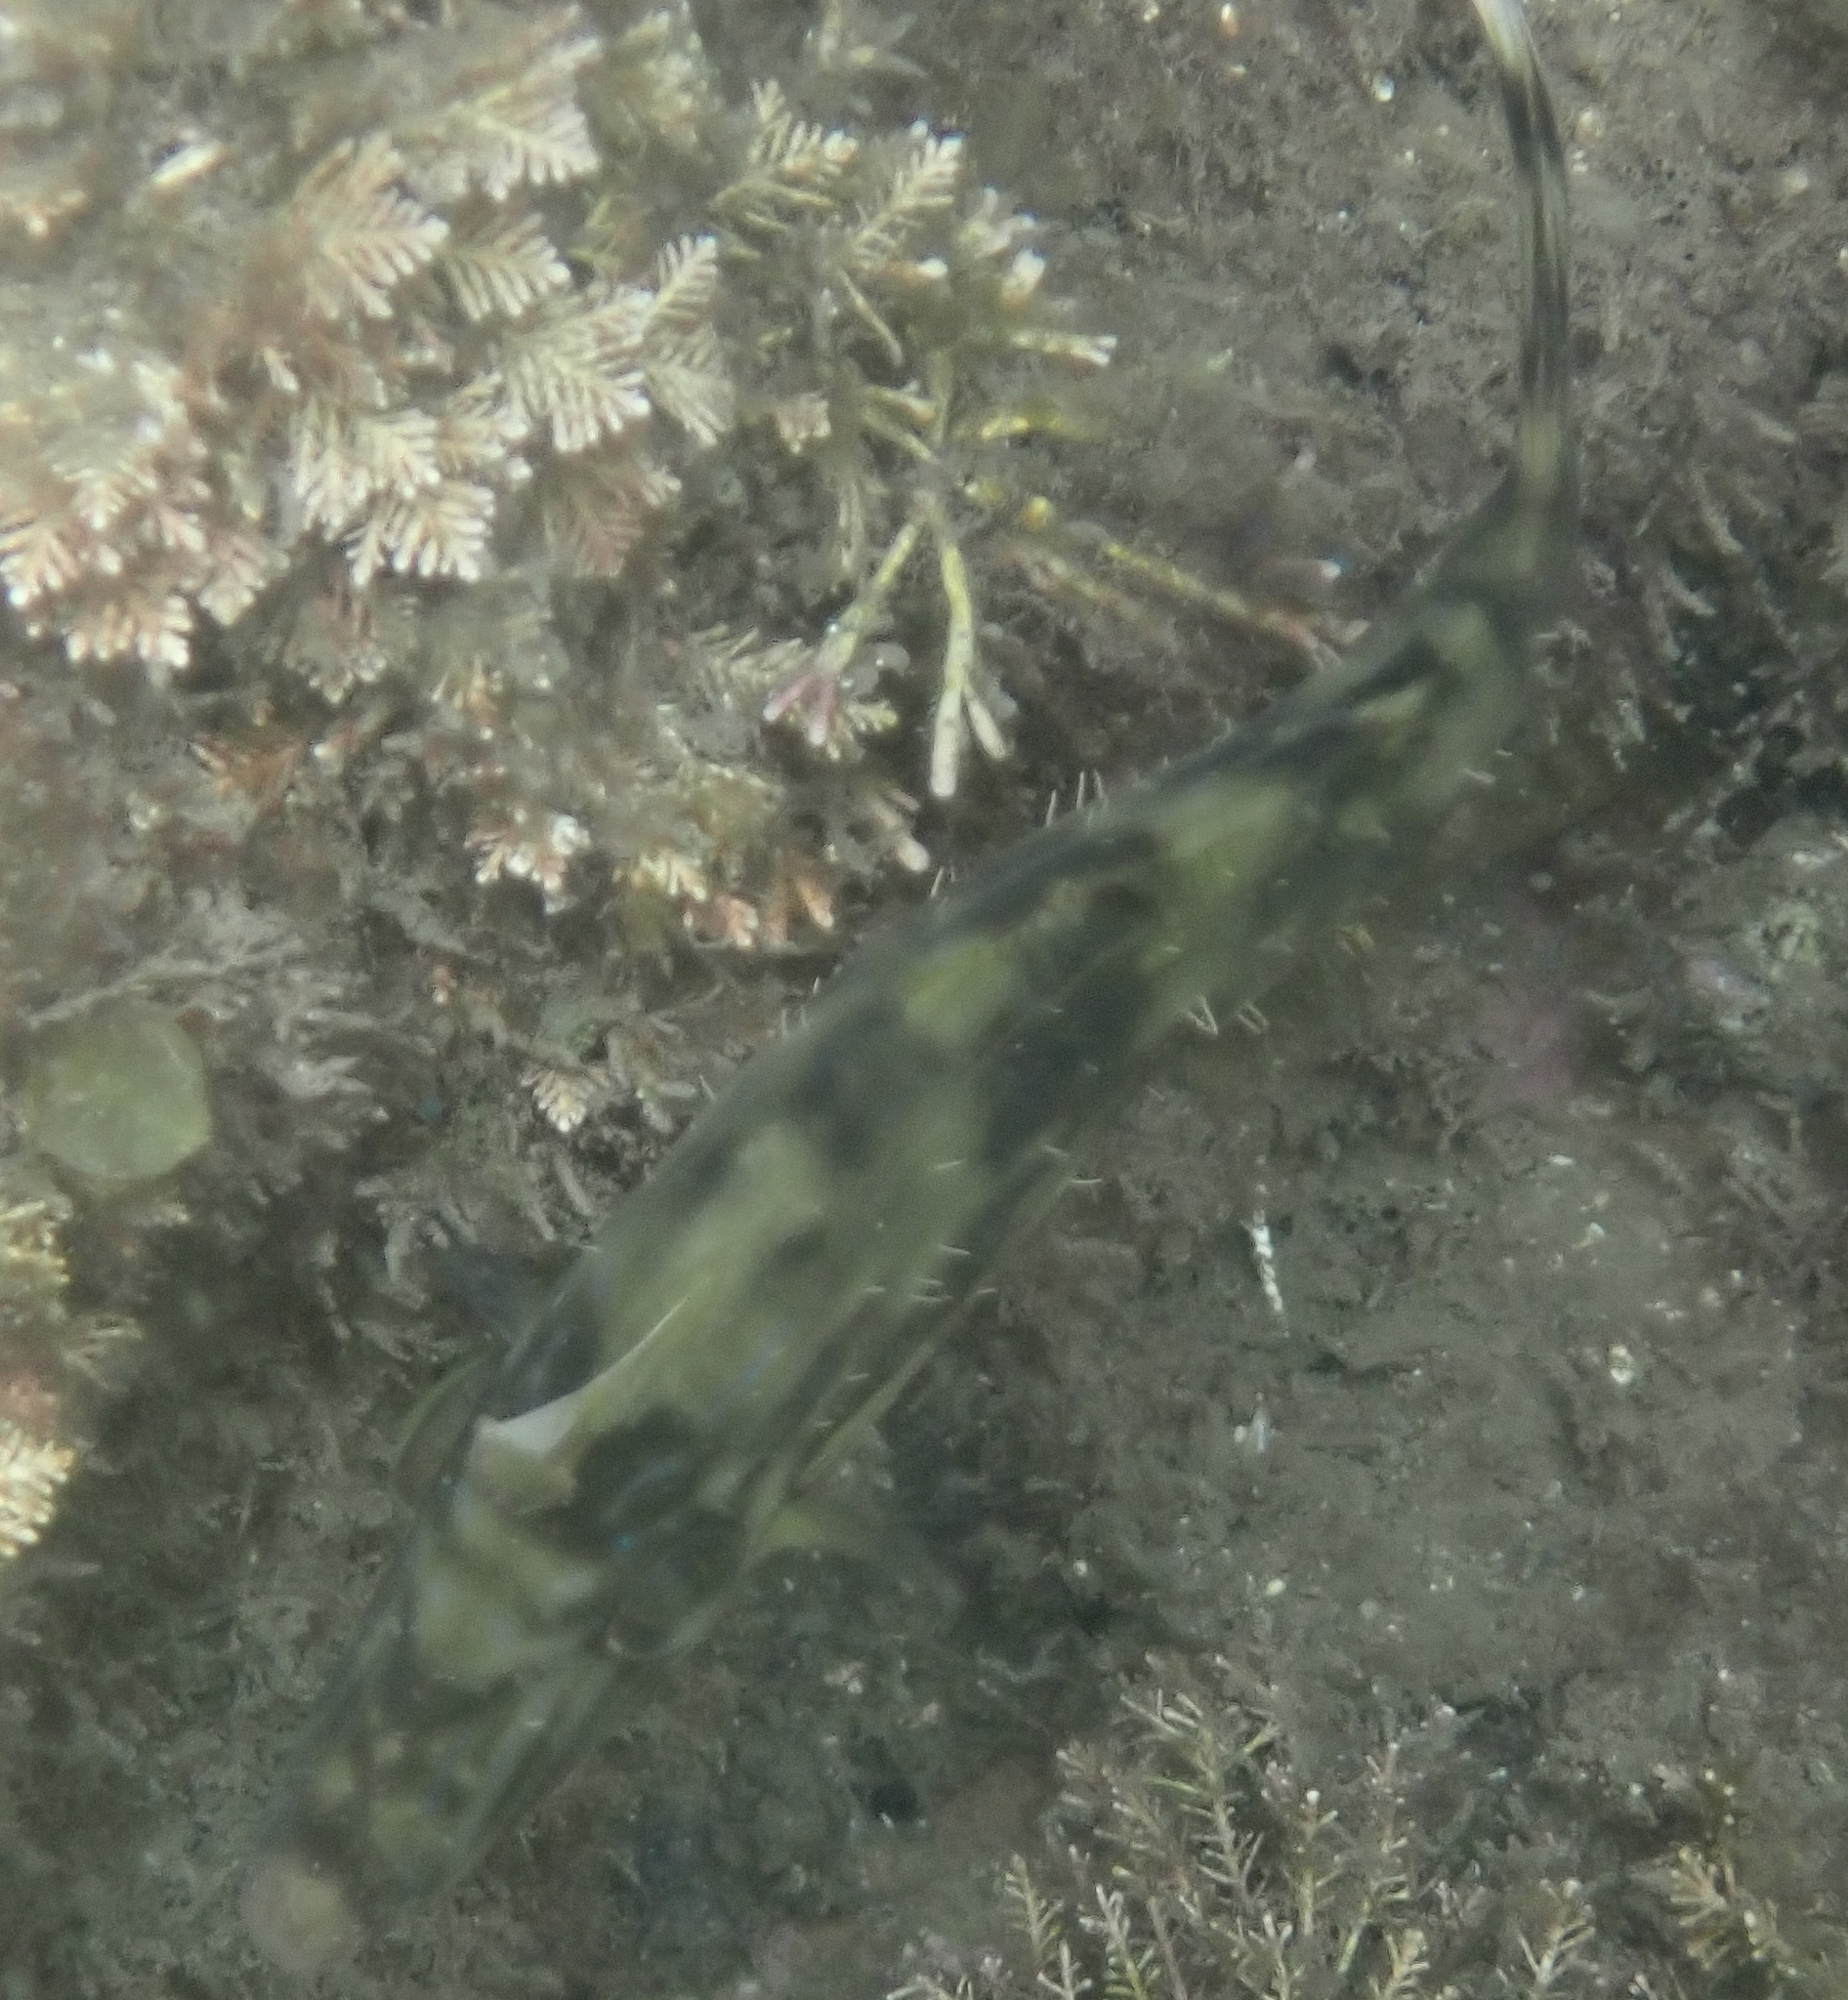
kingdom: Animalia
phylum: Chordata
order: Tetraodontiformes
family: Monacanthidae
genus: Meuschenia
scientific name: Meuschenia freycineti
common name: Freycinet's leatherjacket
